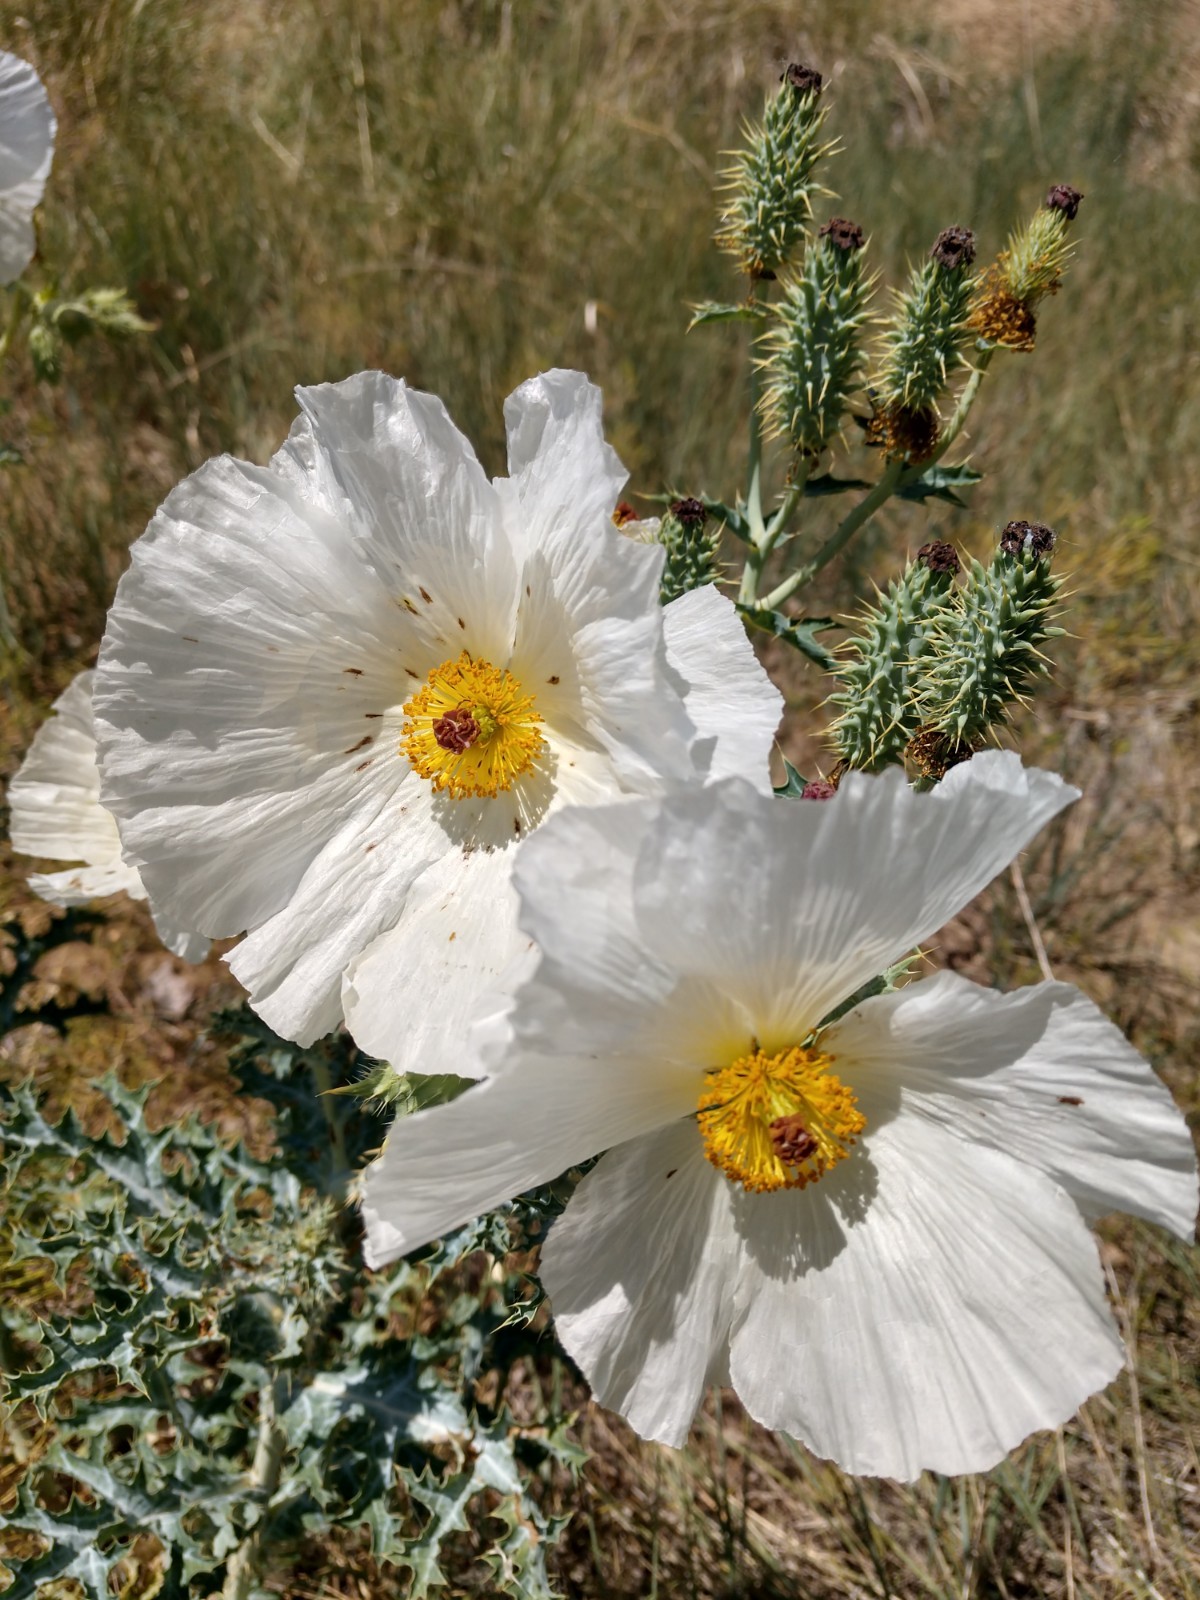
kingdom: Plantae
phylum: Tracheophyta
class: Magnoliopsida
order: Ranunculales
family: Papaveraceae
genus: Argemone
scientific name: Argemone polyanthemos
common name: Plains prickly-poppy
